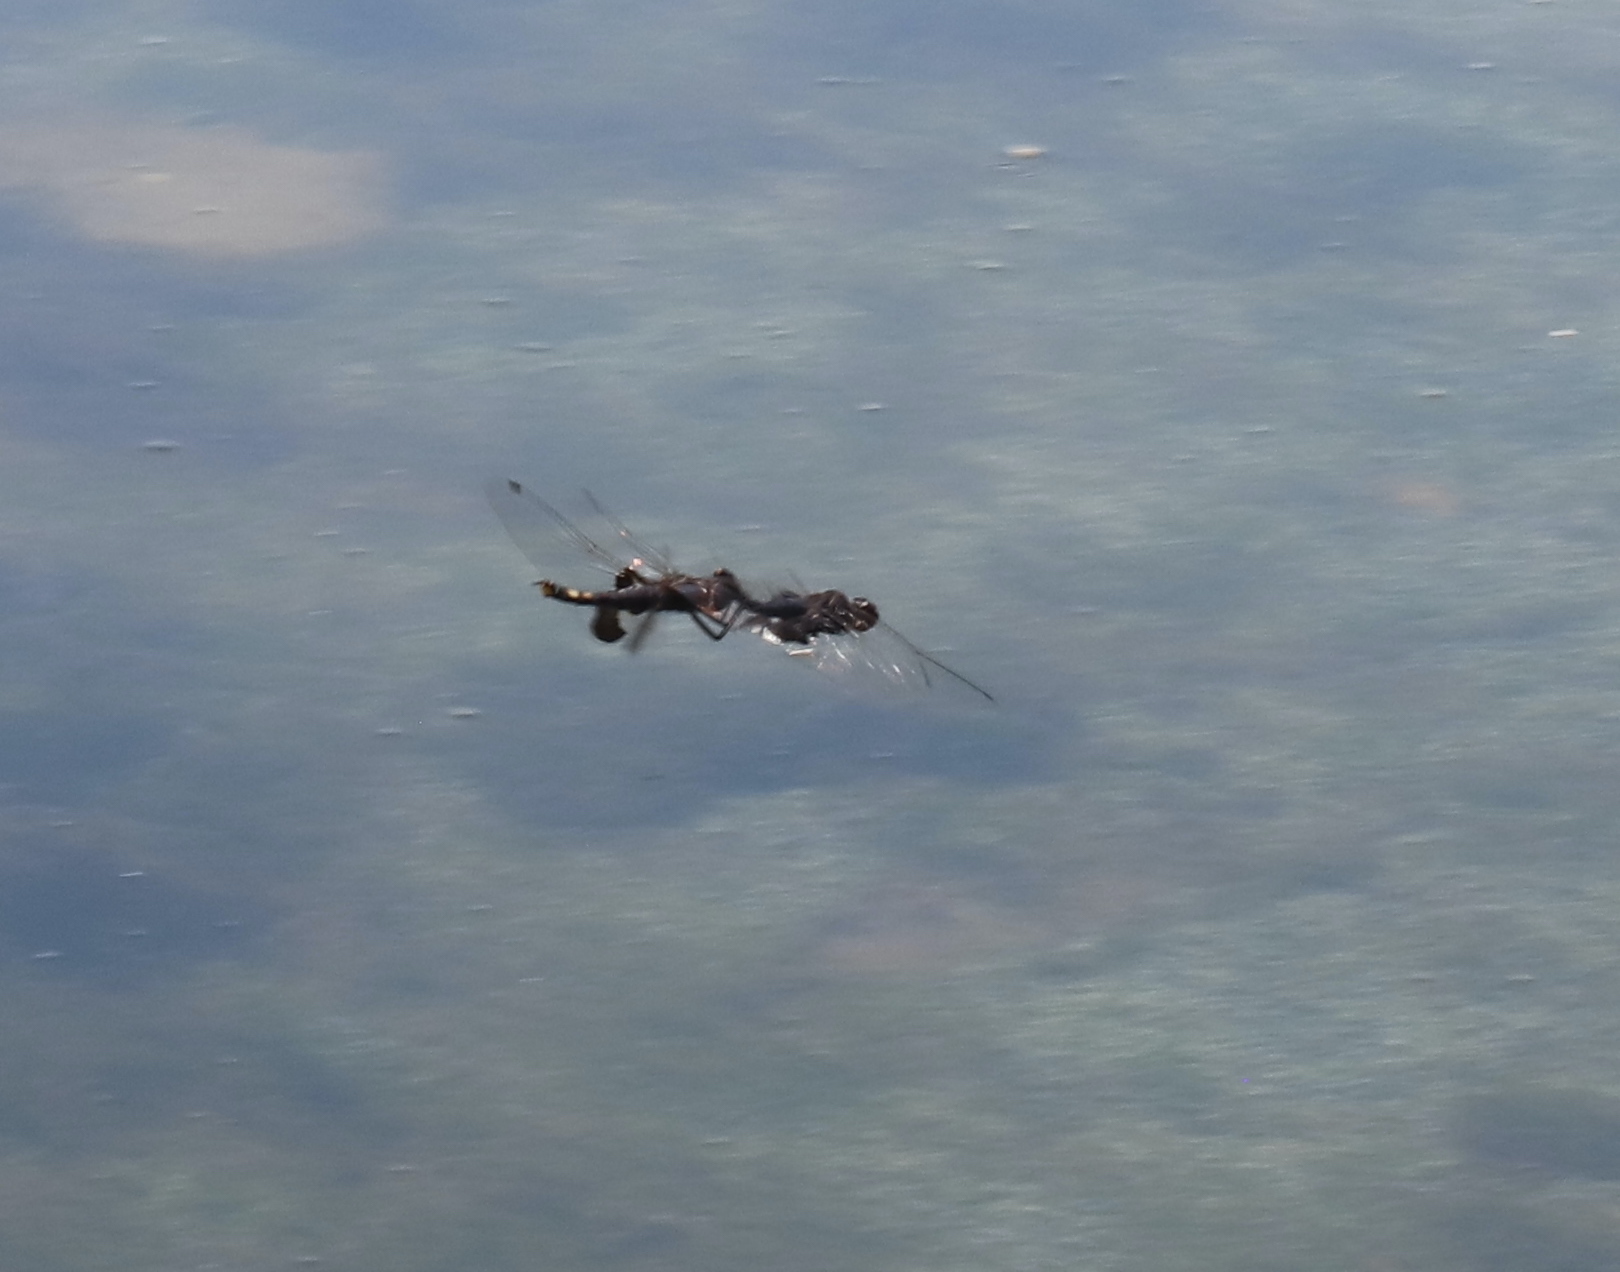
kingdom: Animalia
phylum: Arthropoda
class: Insecta
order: Odonata
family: Libellulidae
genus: Tramea
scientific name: Tramea lacerata
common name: Black saddlebags
